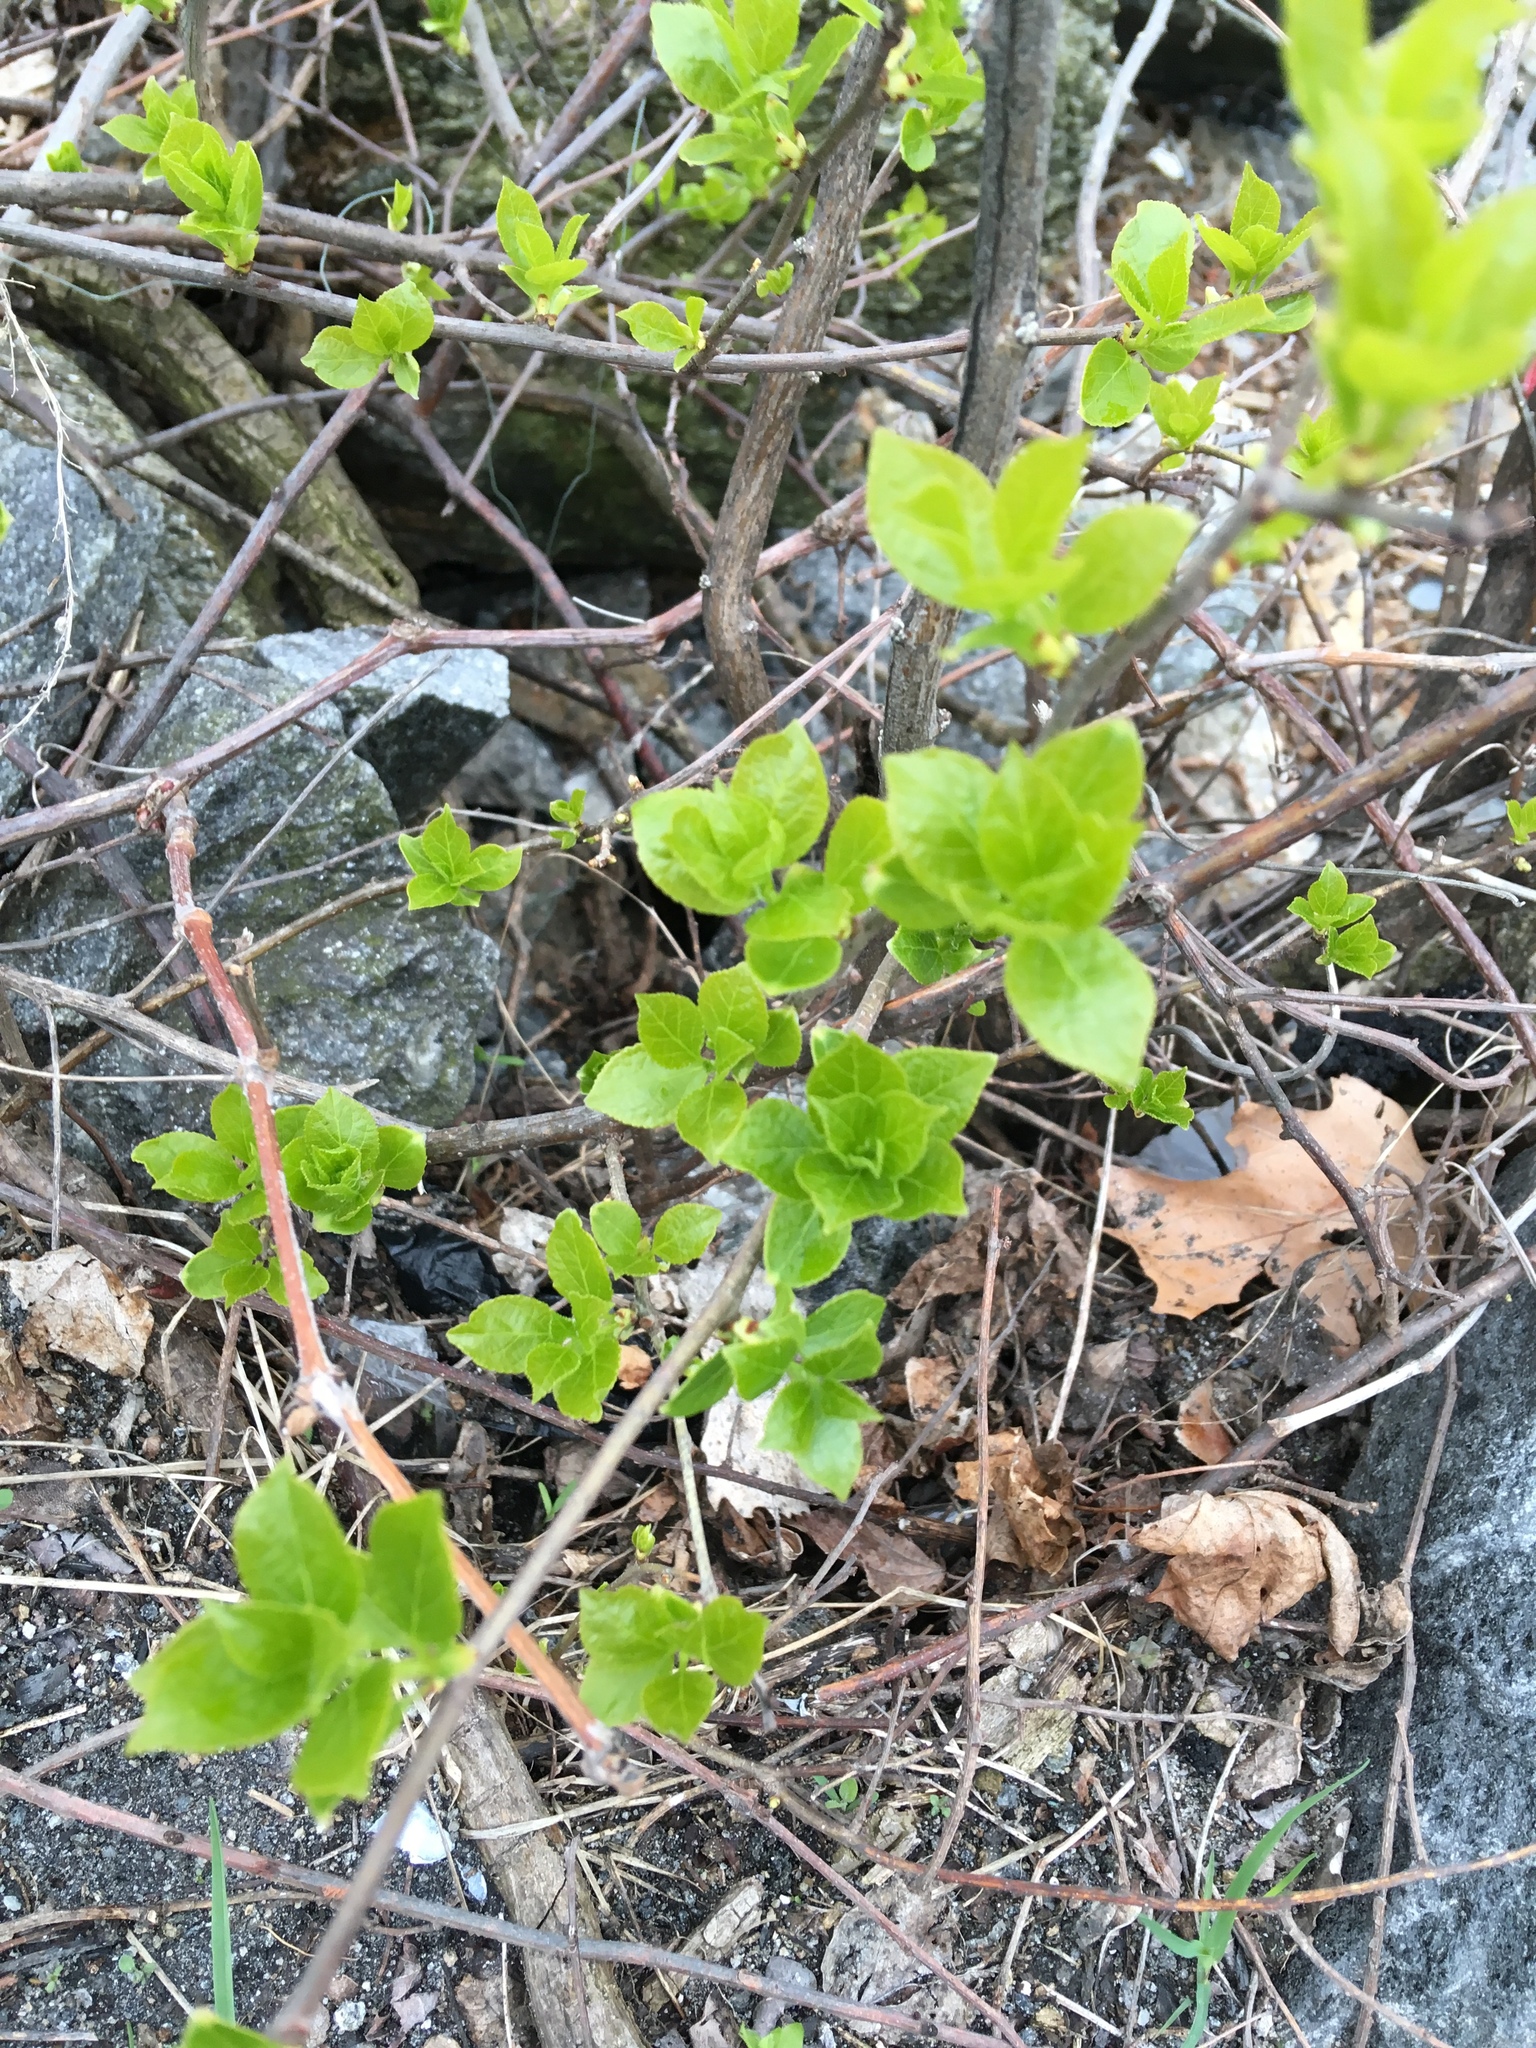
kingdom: Plantae
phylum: Tracheophyta
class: Magnoliopsida
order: Celastrales
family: Celastraceae
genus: Celastrus
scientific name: Celastrus orbiculatus
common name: Oriental bittersweet
